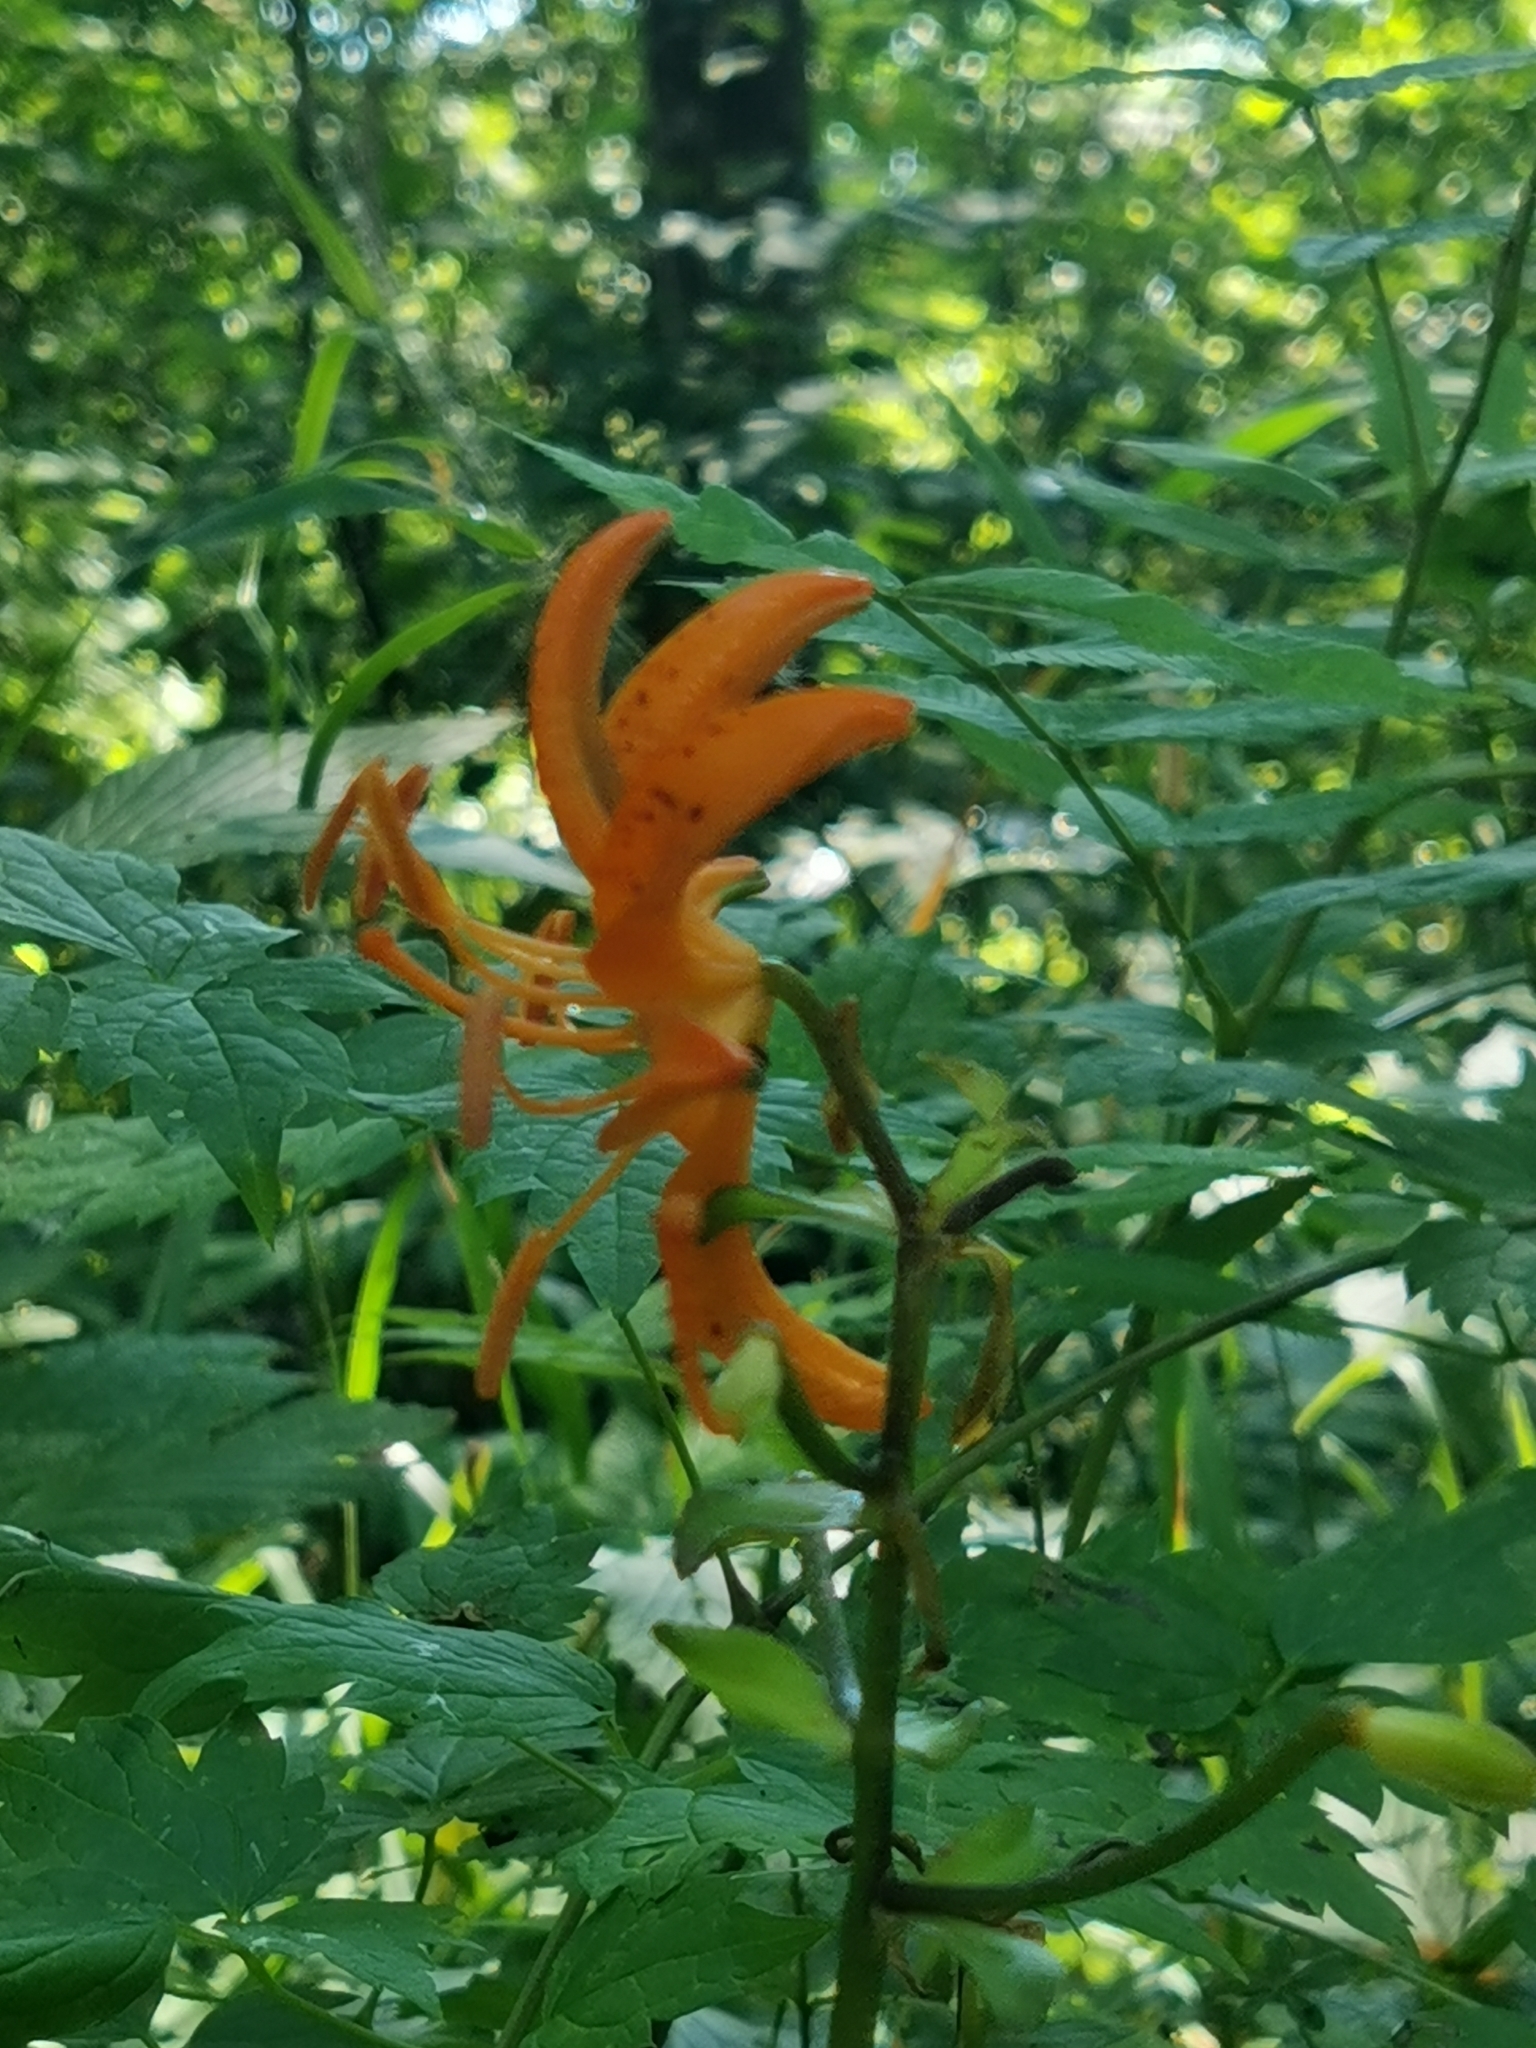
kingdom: Plantae
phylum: Tracheophyta
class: Liliopsida
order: Liliales
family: Liliaceae
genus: Lilium
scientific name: Lilium distichum
